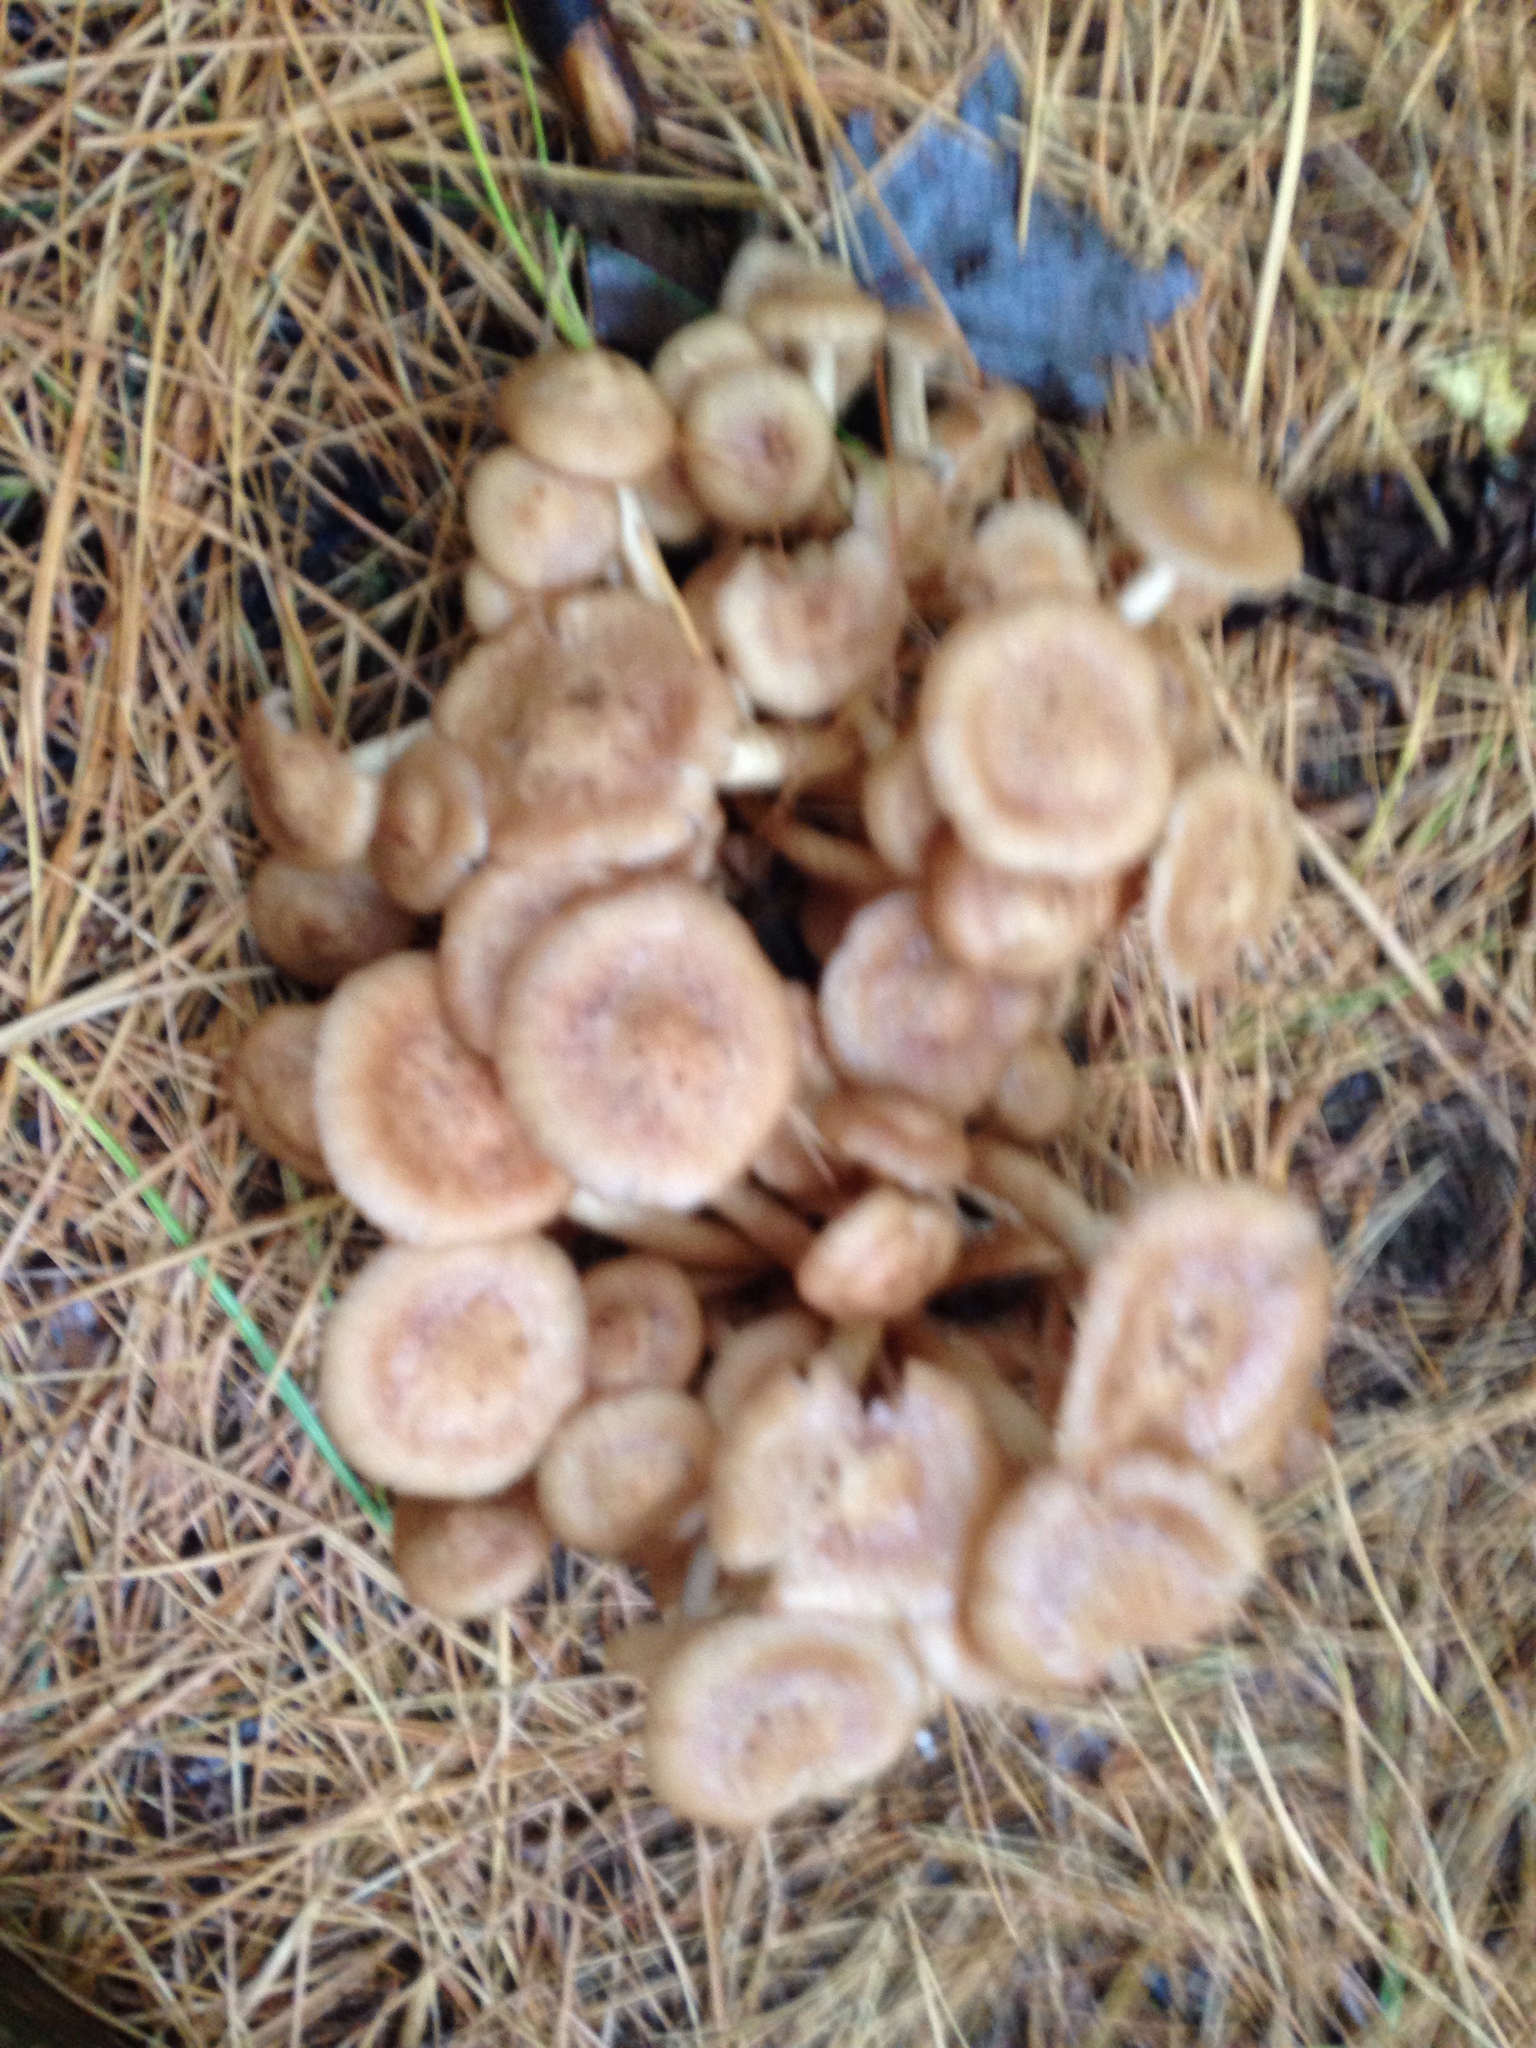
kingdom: Fungi
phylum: Basidiomycota
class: Agaricomycetes
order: Agaricales
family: Physalacriaceae
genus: Desarmillaria
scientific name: Desarmillaria caespitosa
